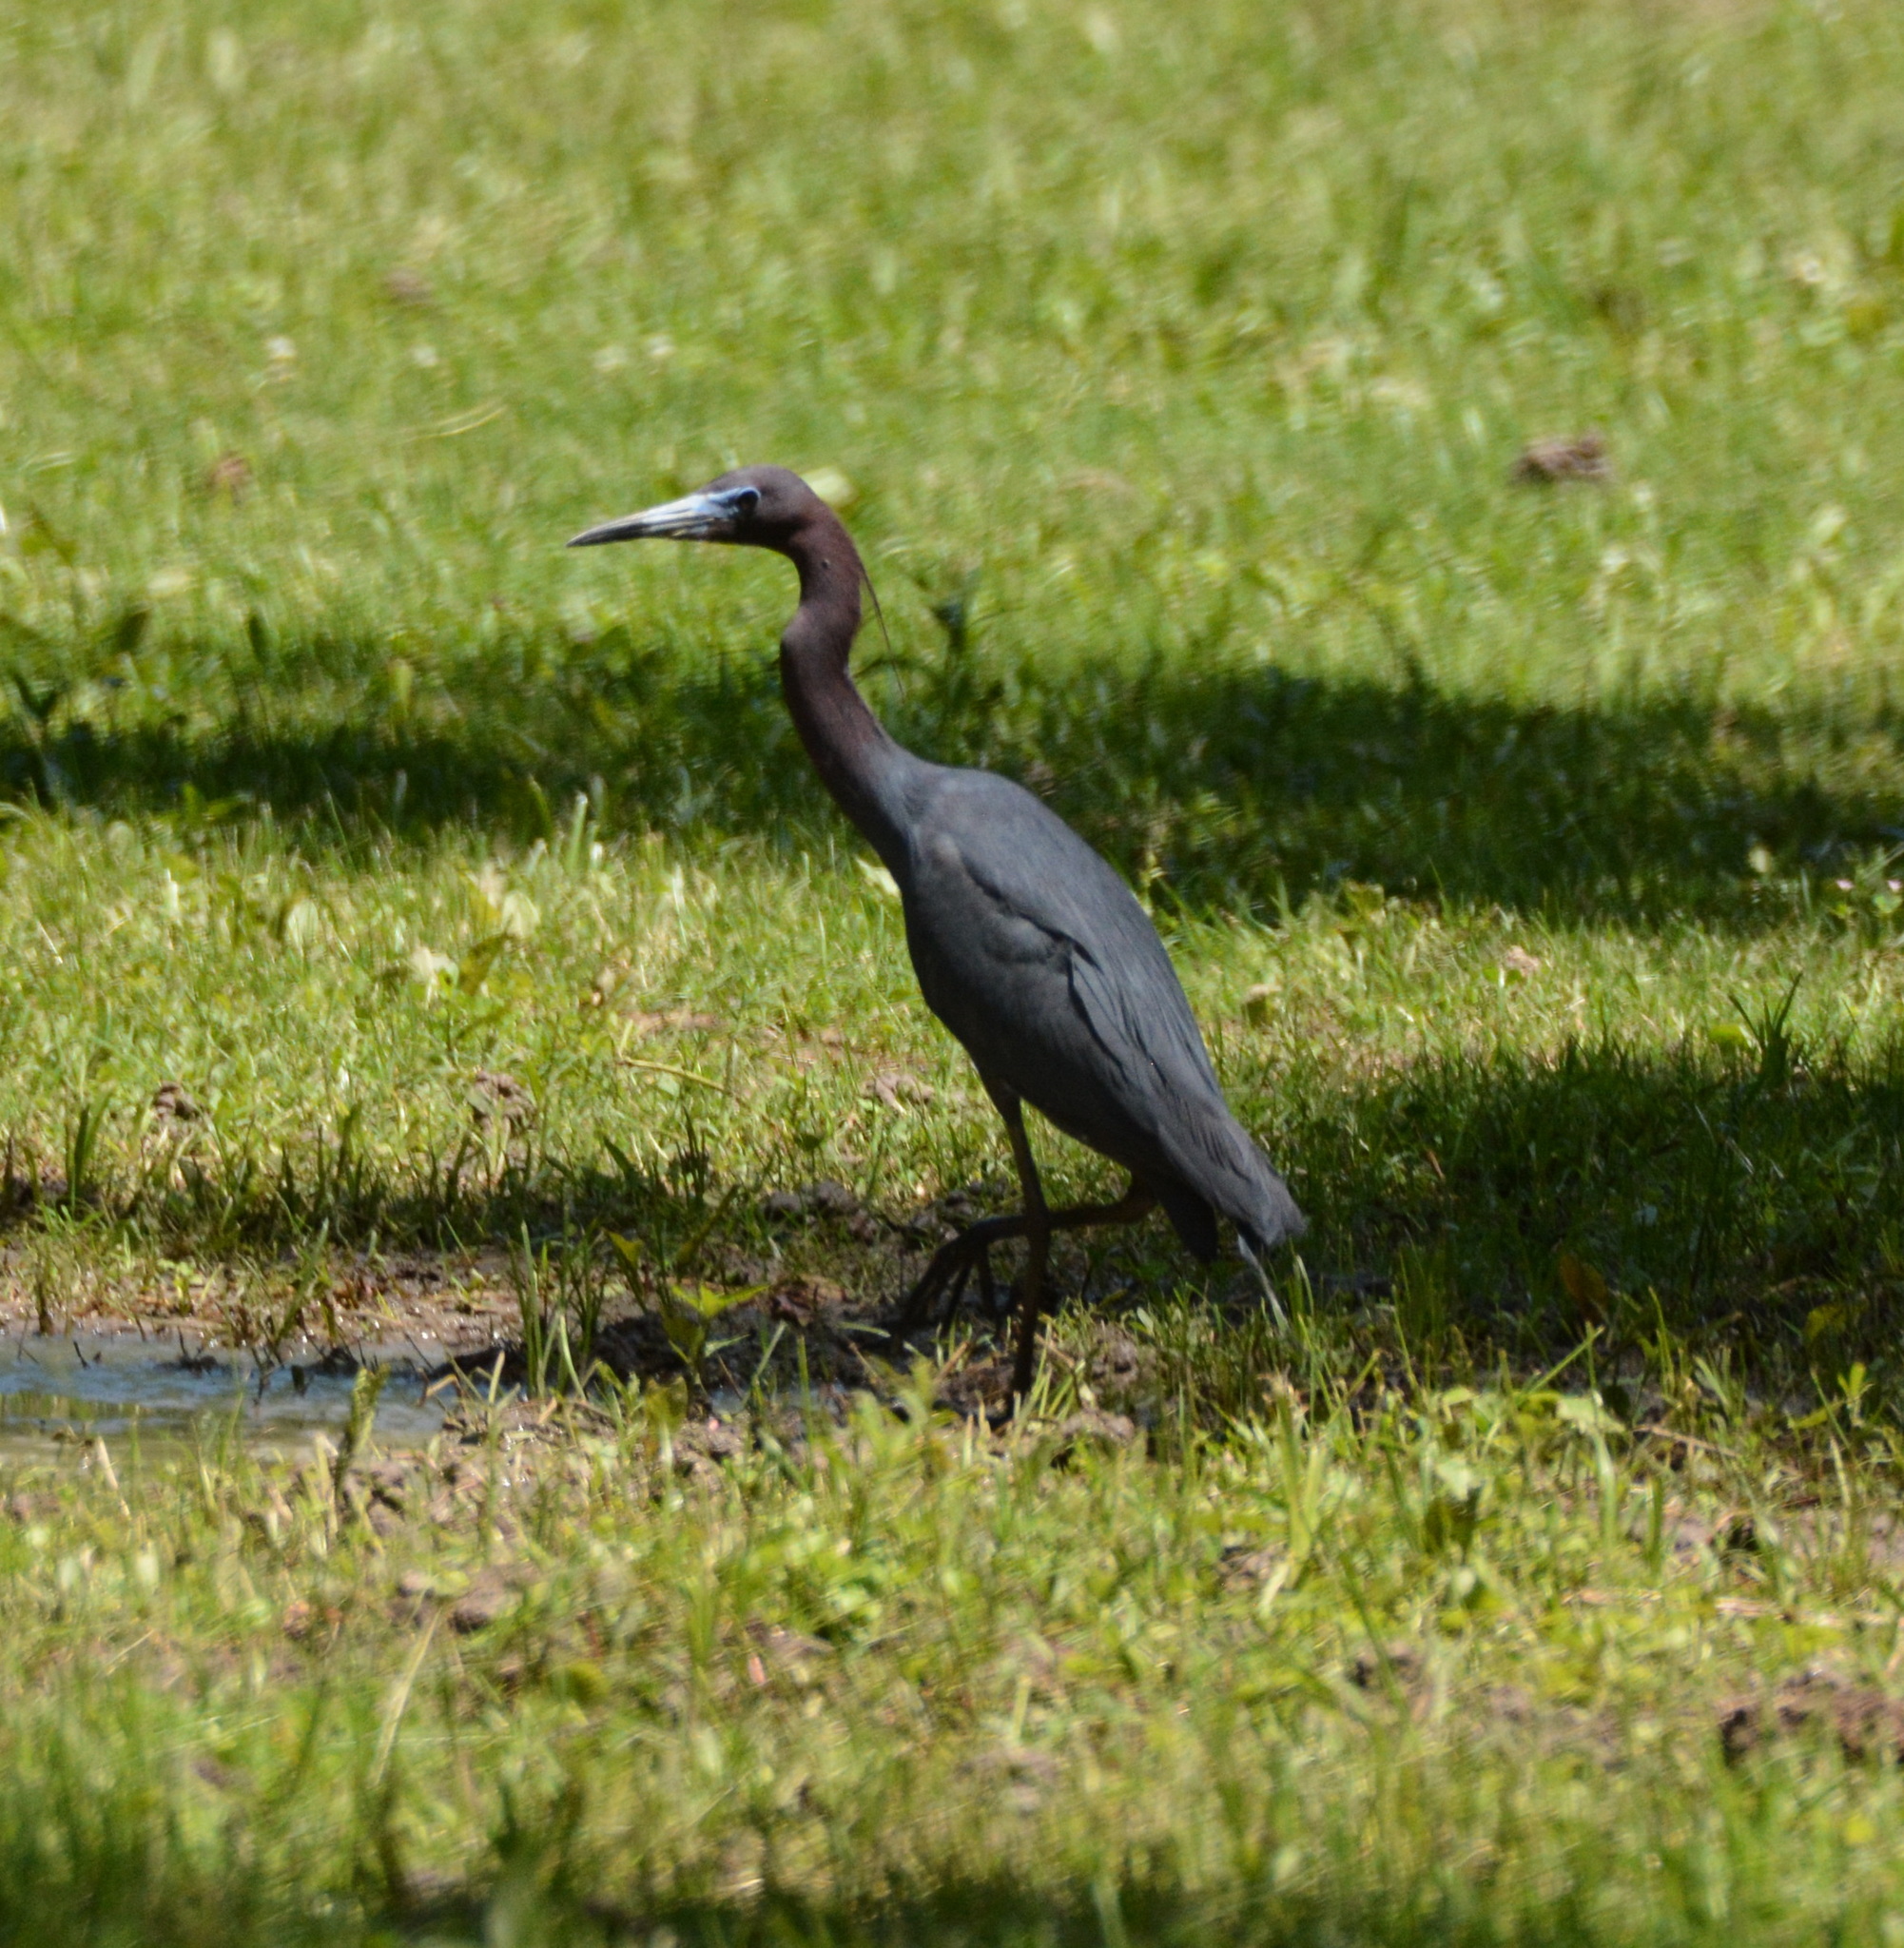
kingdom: Animalia
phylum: Chordata
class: Aves
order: Pelecaniformes
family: Ardeidae
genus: Egretta
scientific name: Egretta caerulea
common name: Little blue heron
